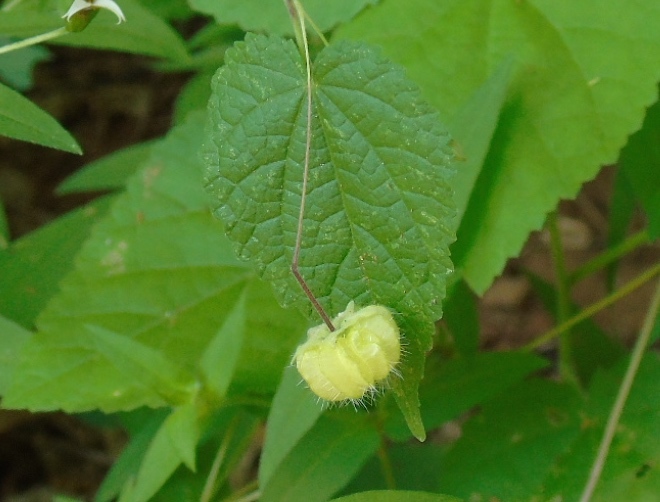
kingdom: Plantae
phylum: Tracheophyta
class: Magnoliopsida
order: Malvales
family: Malvaceae
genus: Herissantia
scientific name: Herissantia crispa
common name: Bladdermallow
